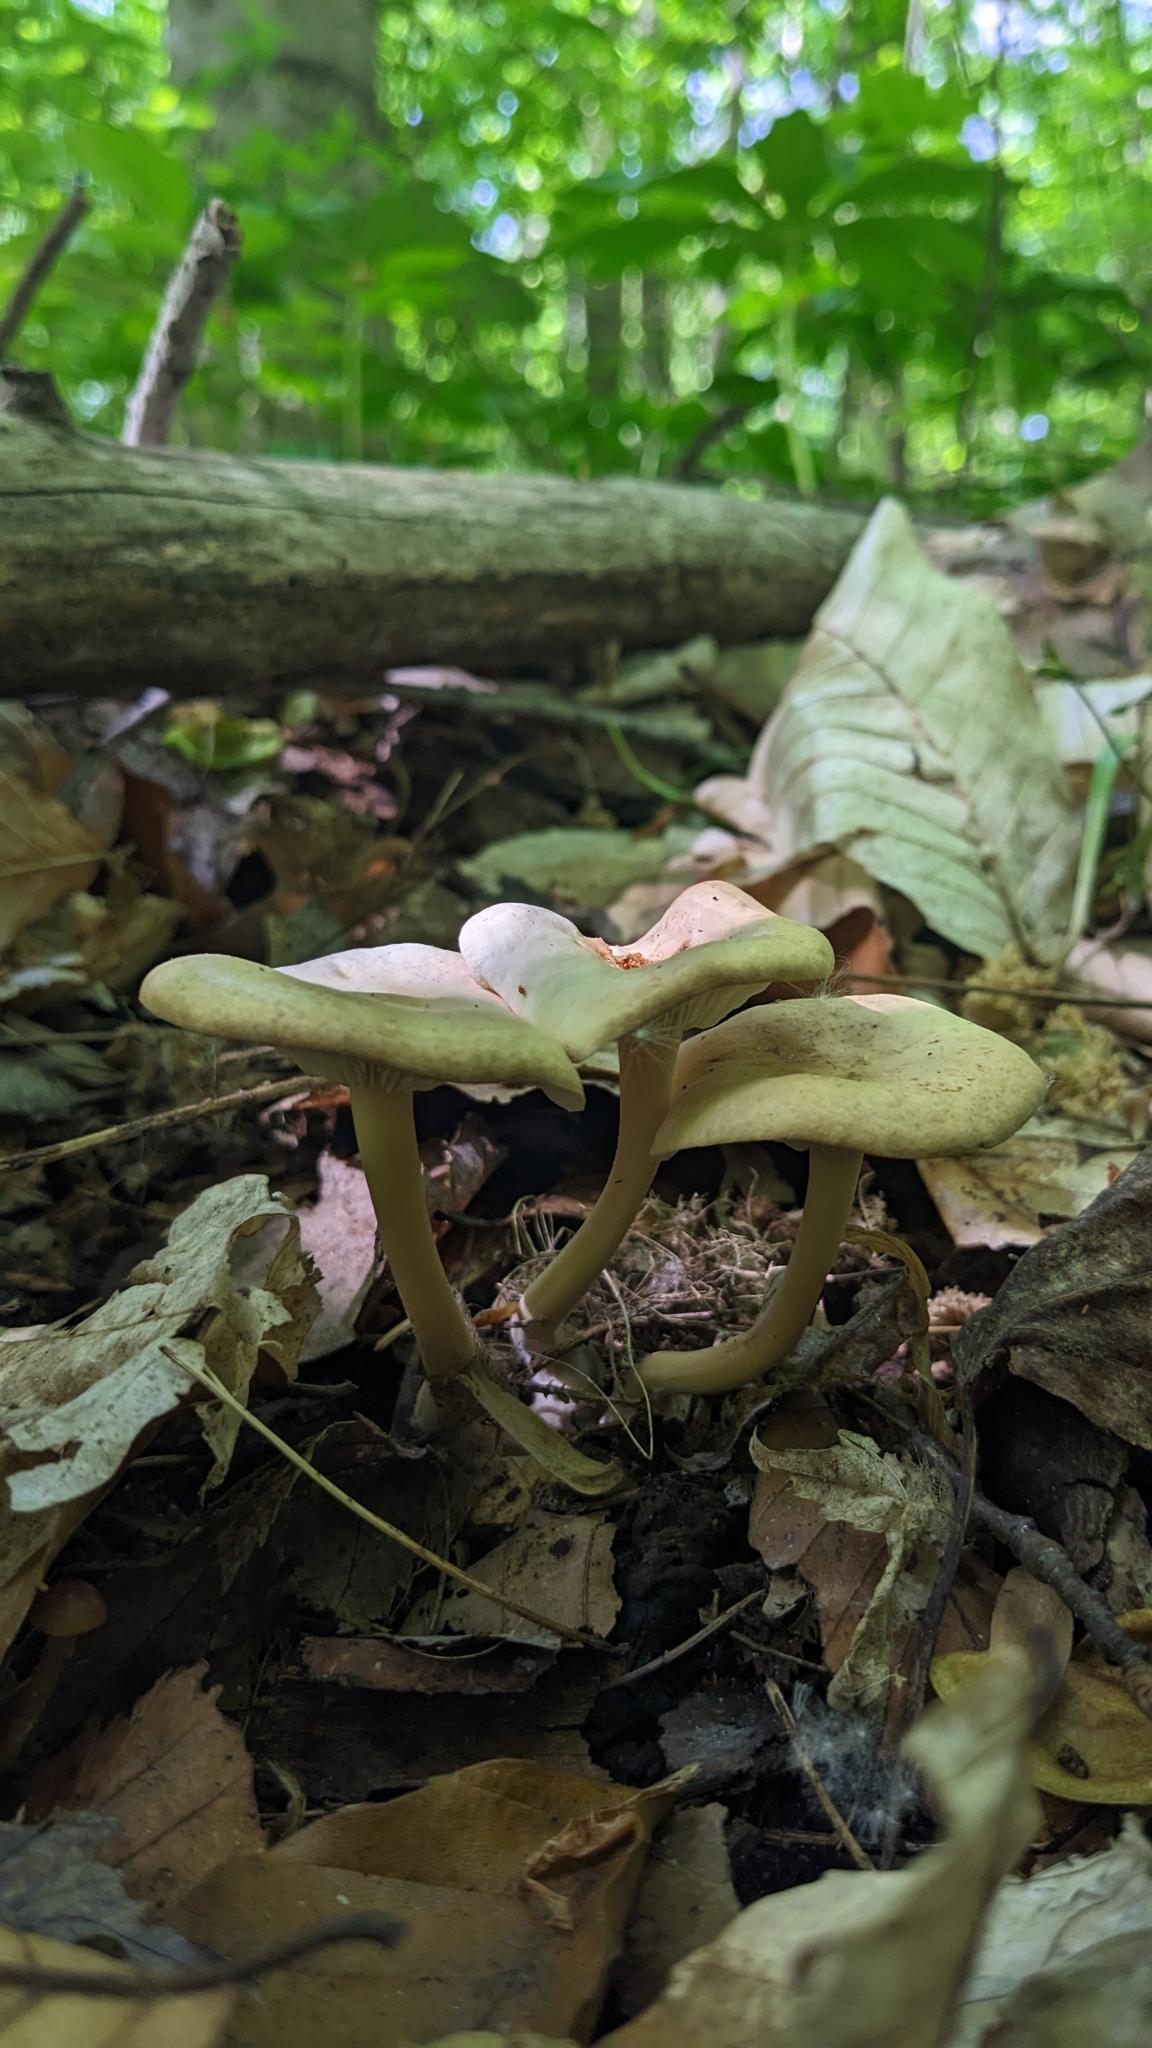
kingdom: Fungi
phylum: Basidiomycota
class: Agaricomycetes
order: Agaricales
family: Omphalotaceae
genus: Gymnopus
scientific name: Gymnopus subsulphureus
